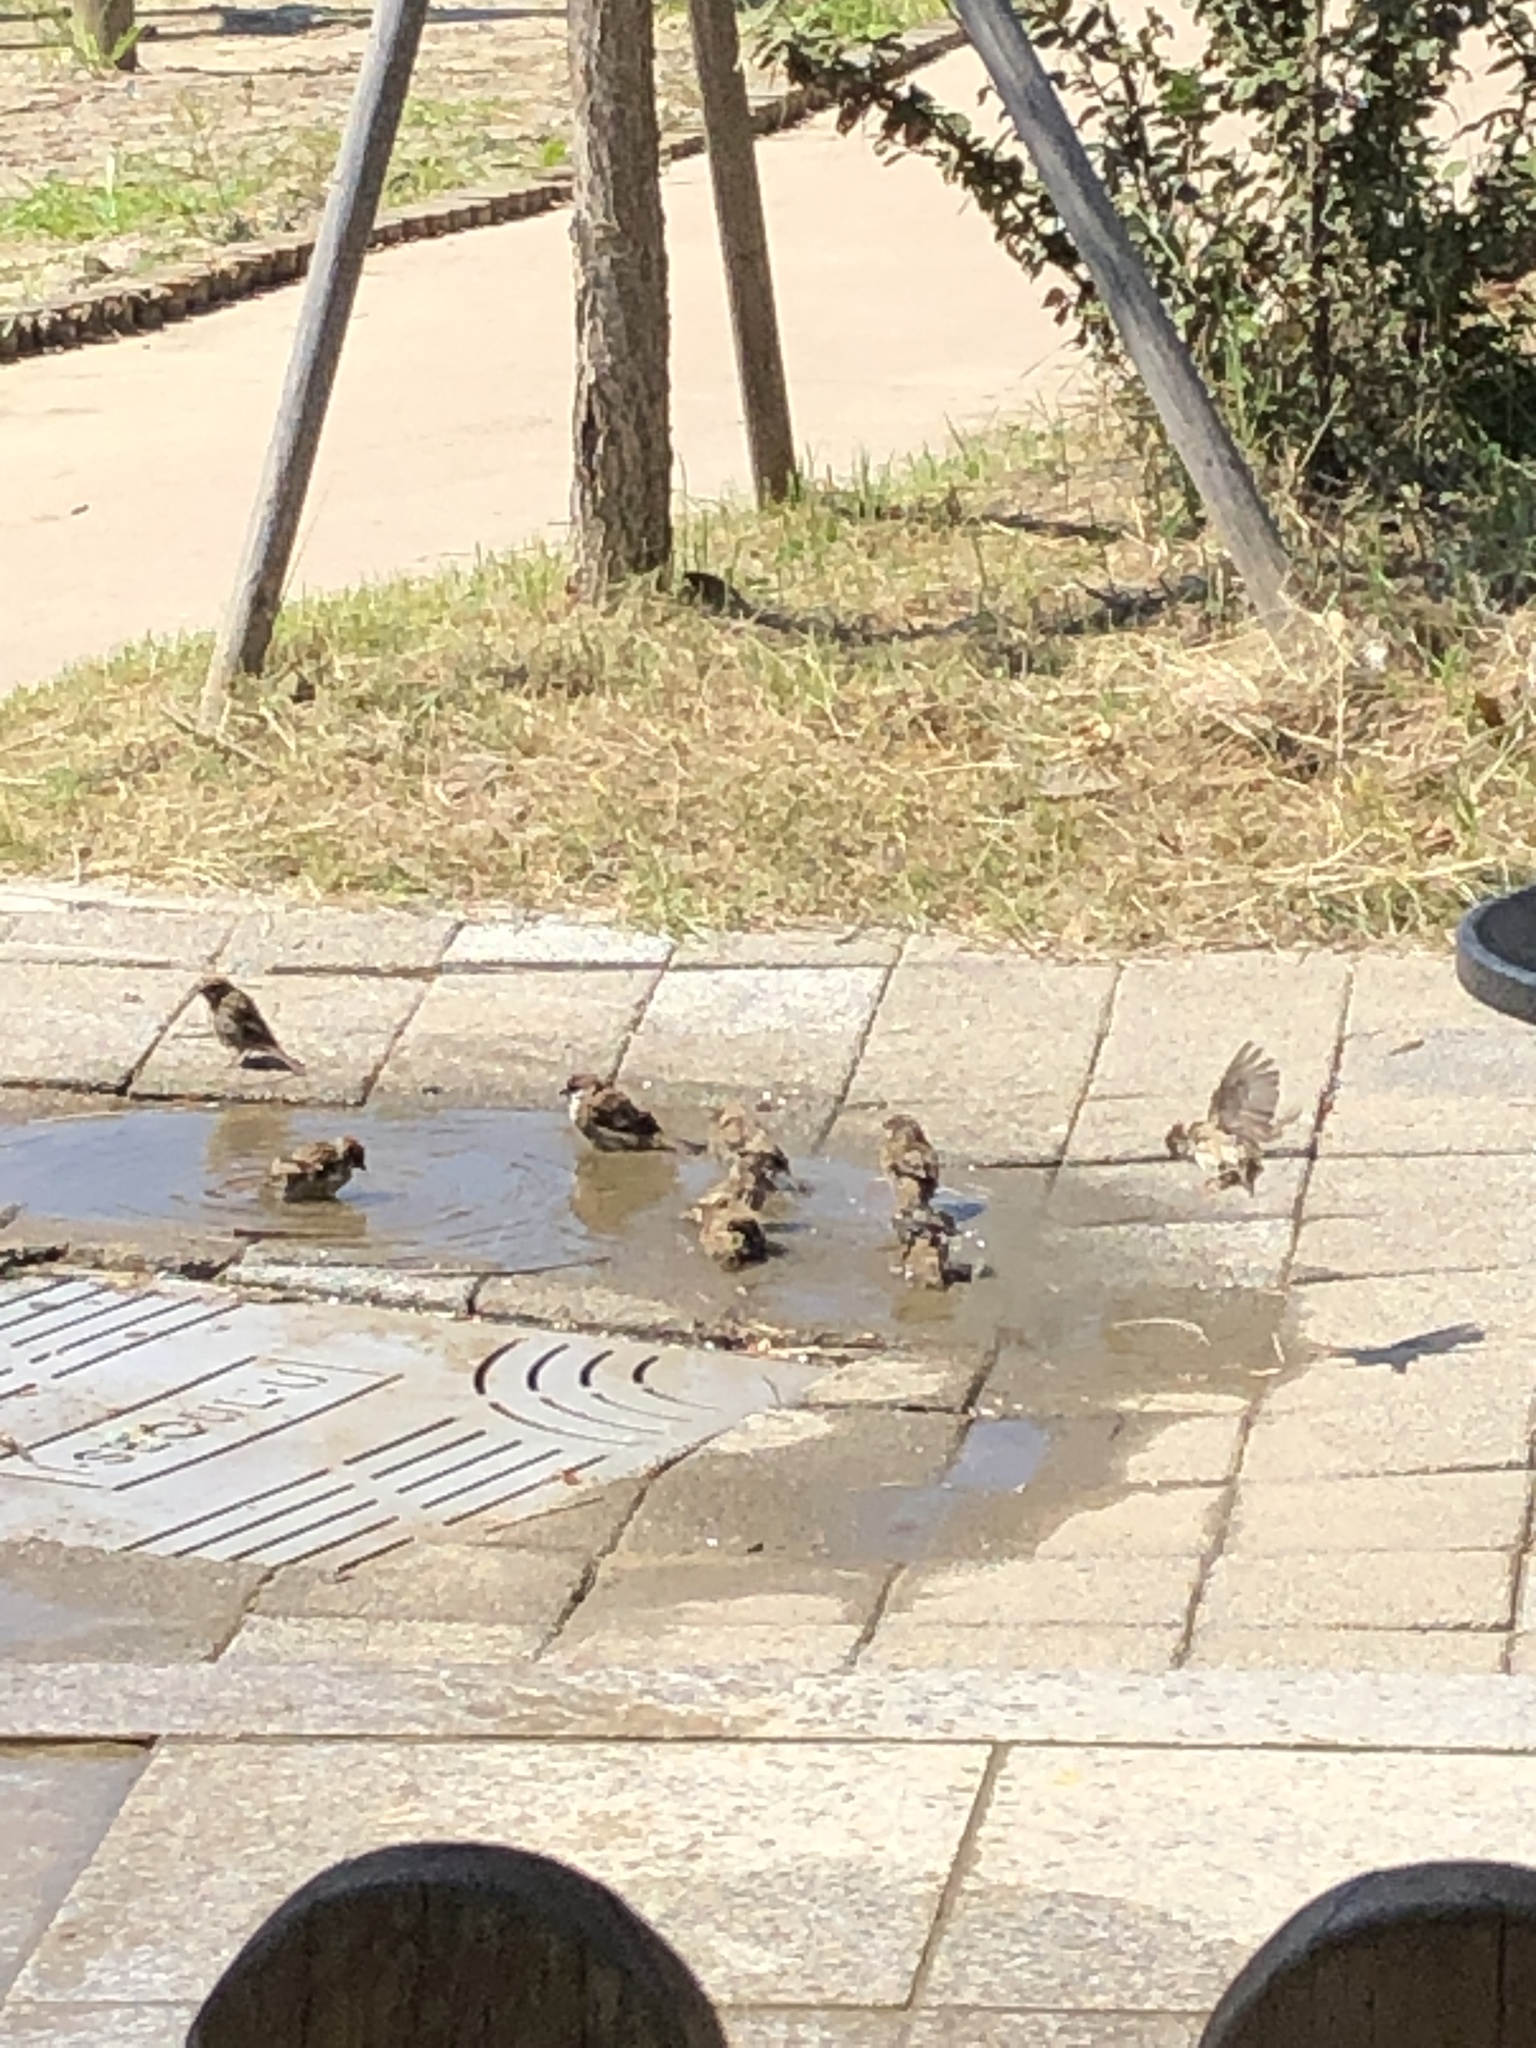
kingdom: Animalia
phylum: Chordata
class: Aves
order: Passeriformes
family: Passeridae
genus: Passer
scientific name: Passer montanus
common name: Eurasian tree sparrow
